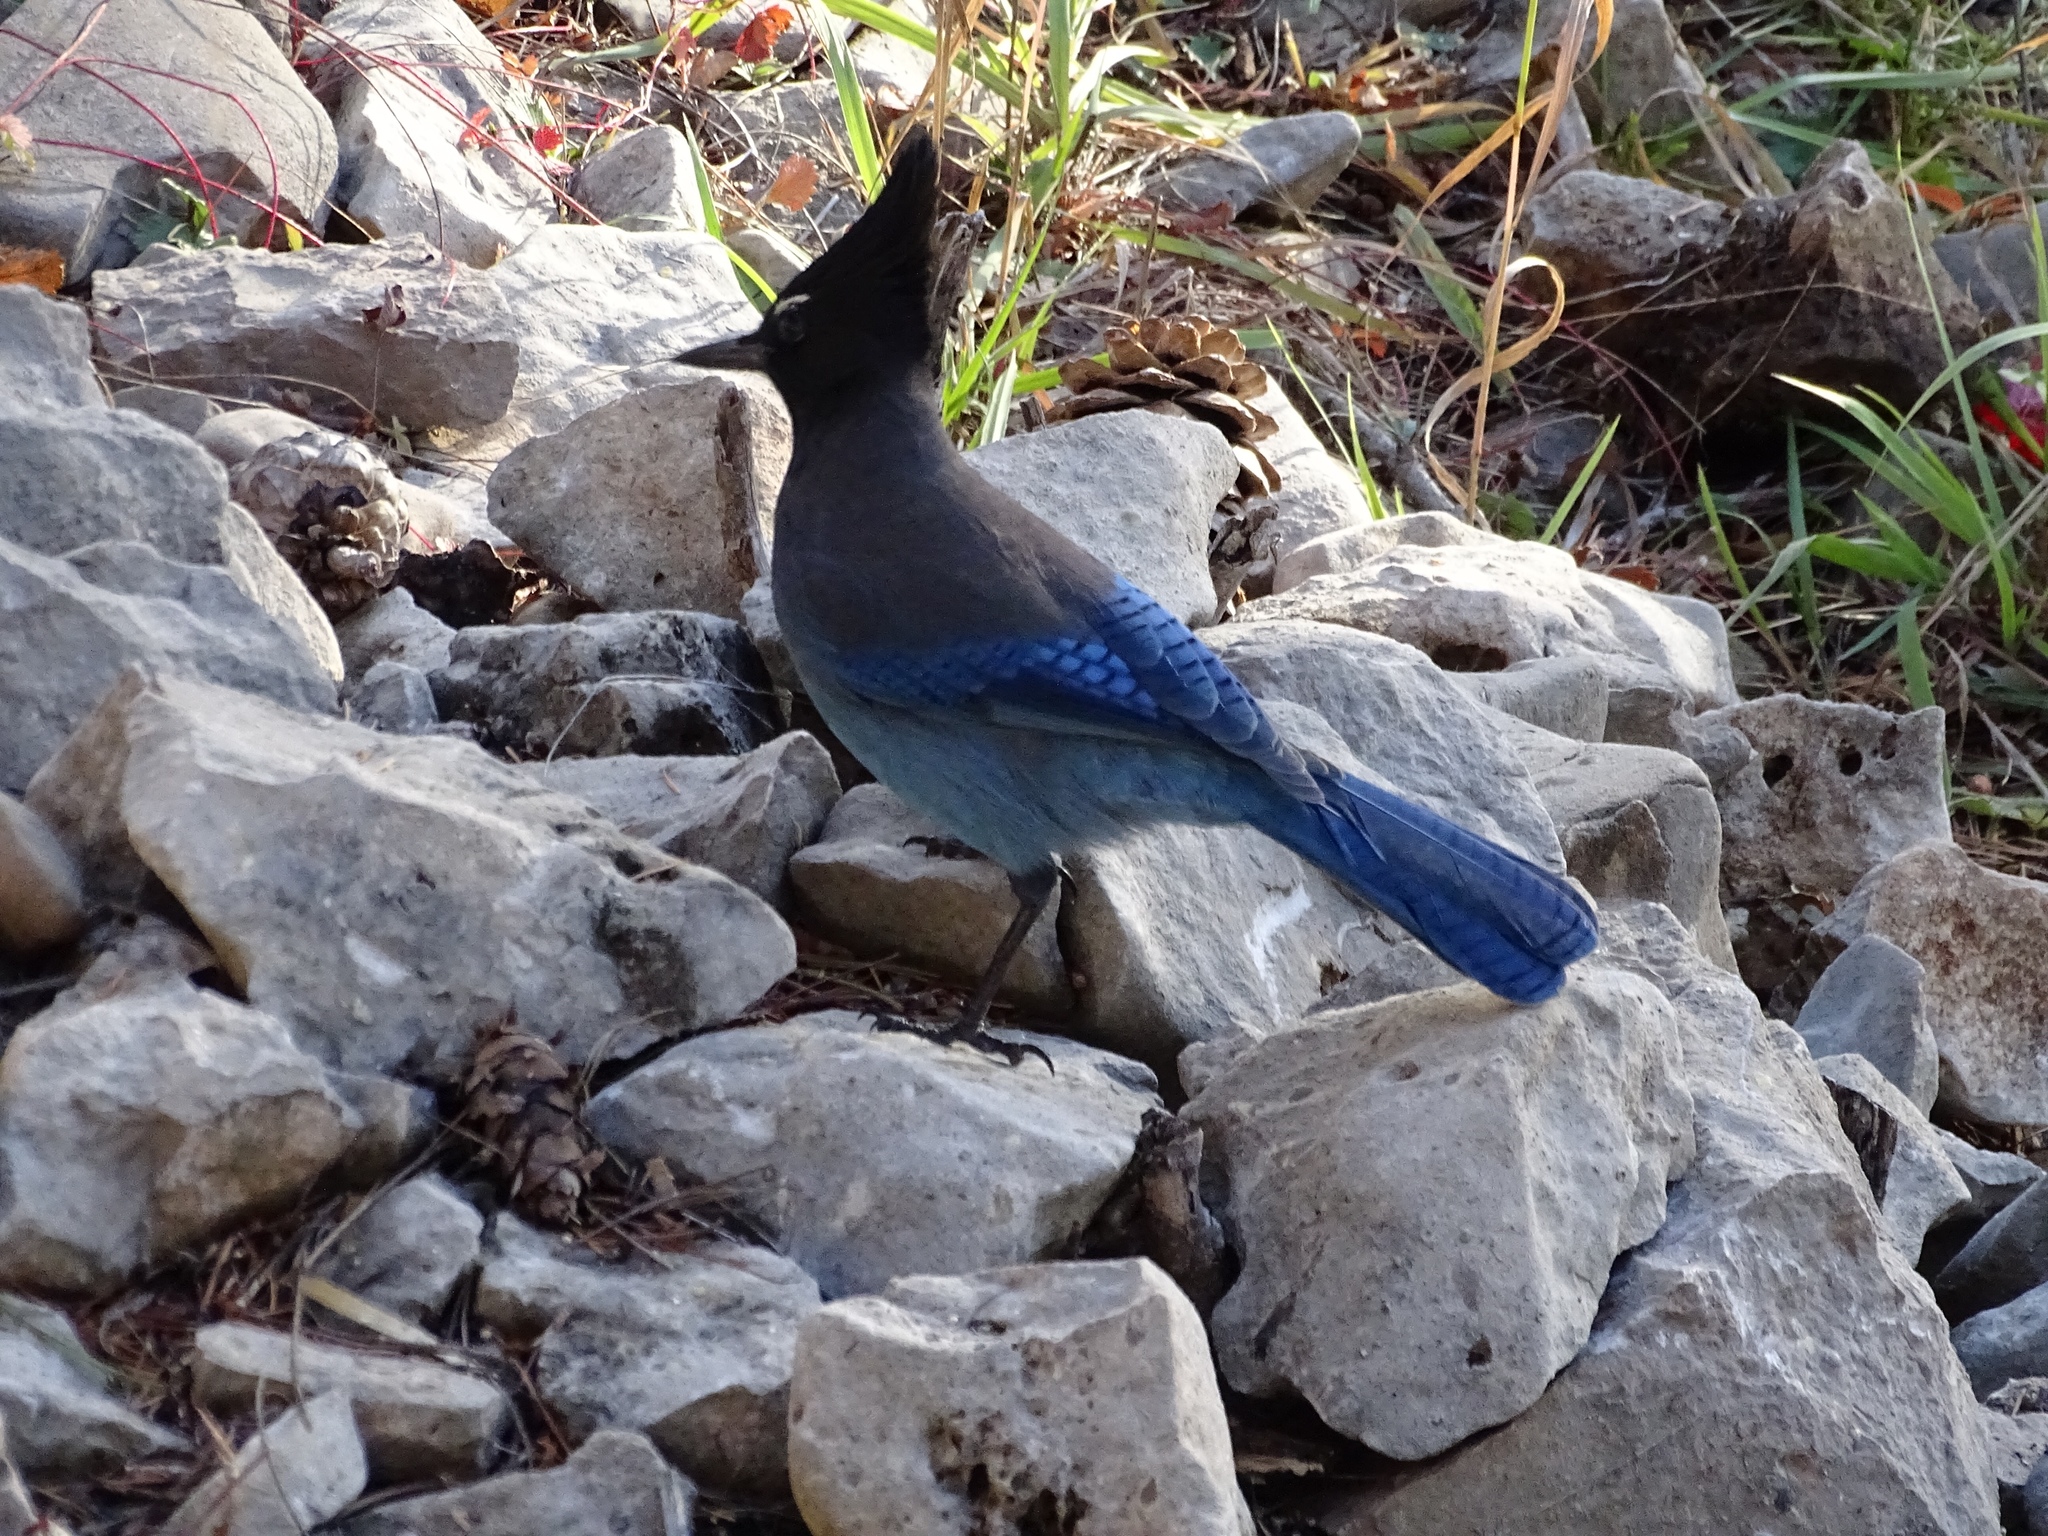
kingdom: Animalia
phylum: Chordata
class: Aves
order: Passeriformes
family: Corvidae
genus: Cyanocitta
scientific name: Cyanocitta stelleri
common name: Steller's jay
